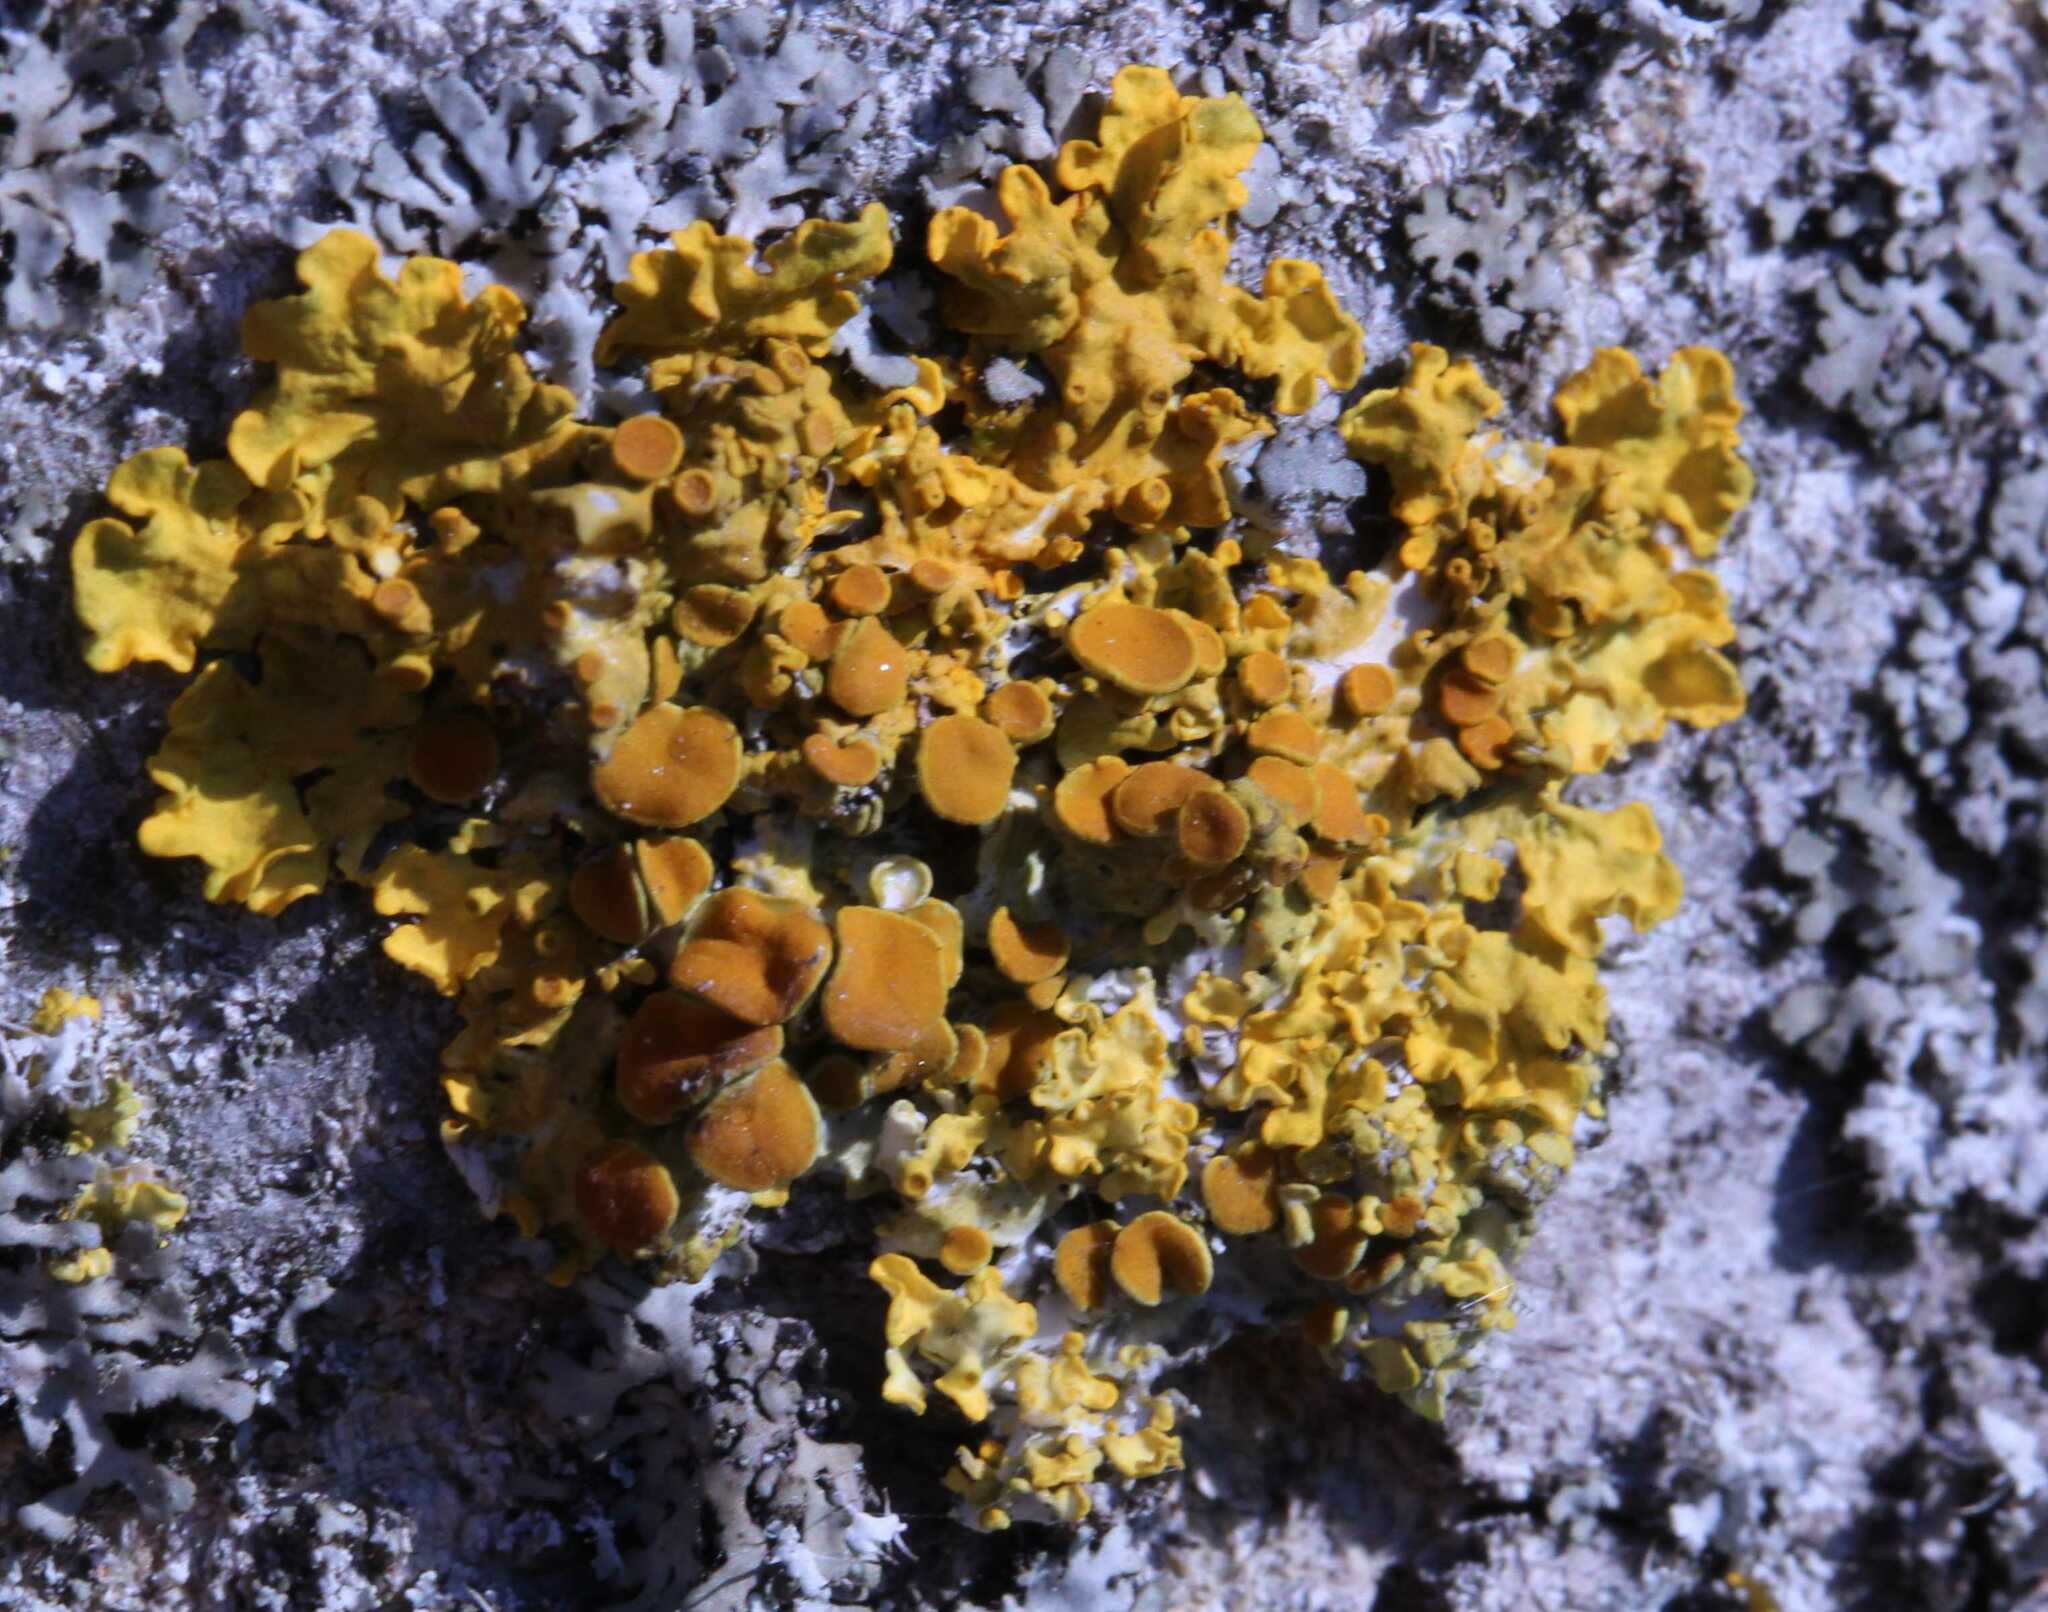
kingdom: Fungi
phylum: Ascomycota
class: Lecanoromycetes
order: Teloschistales
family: Teloschistaceae
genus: Xanthoria
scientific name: Xanthoria parietina
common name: Common orange lichen
